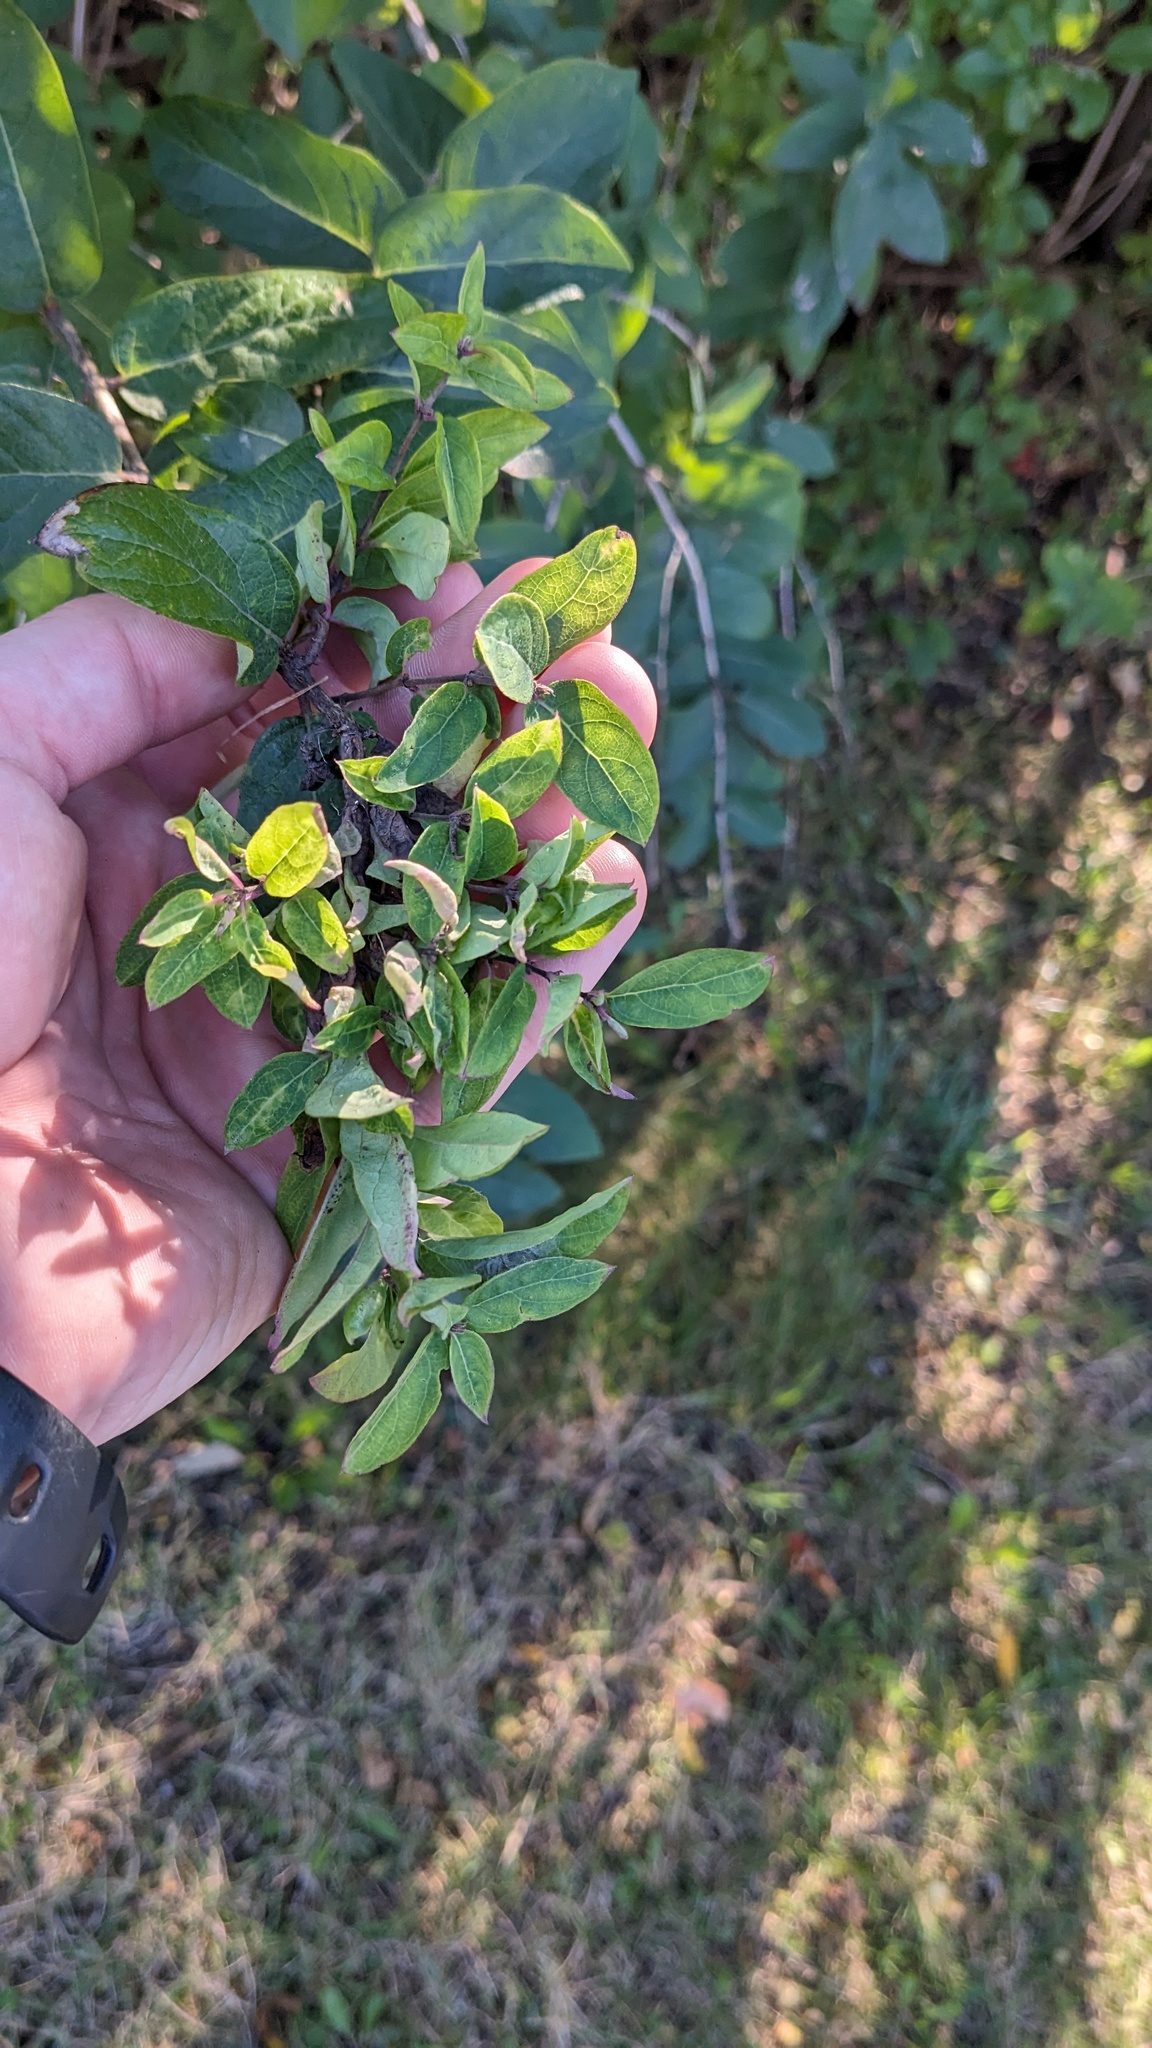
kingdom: Animalia
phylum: Arthropoda
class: Insecta
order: Hemiptera
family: Aphididae
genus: Hyadaphis
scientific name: Hyadaphis tataricae
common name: Honeysuckle witches' broom aphid
